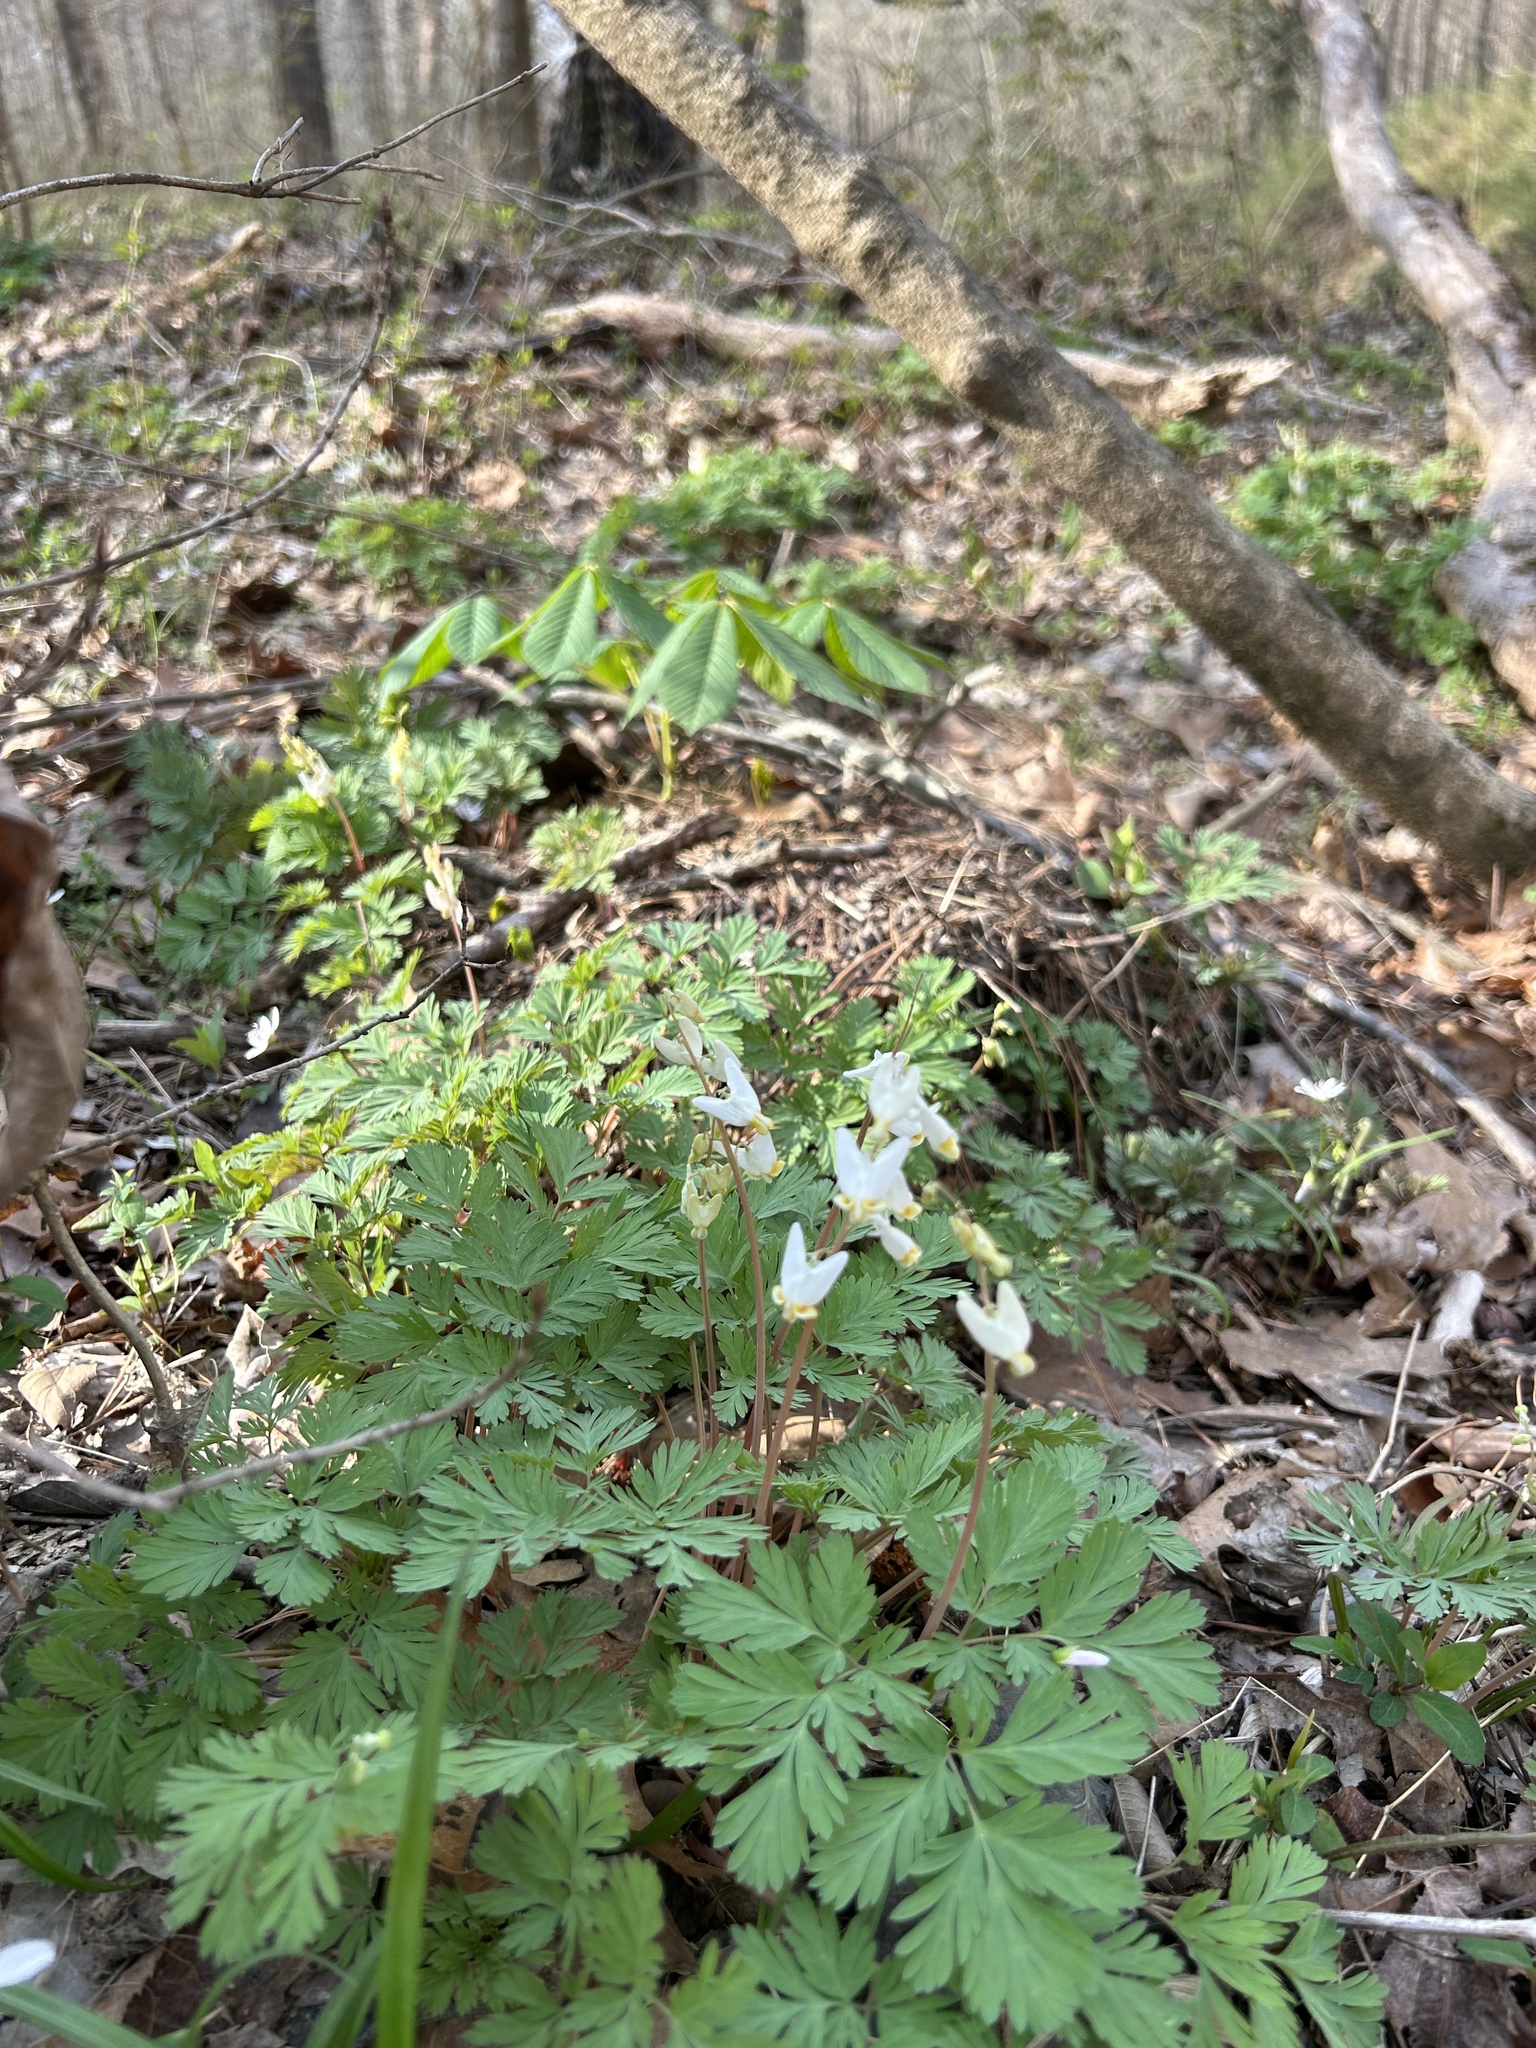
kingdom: Plantae
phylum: Tracheophyta
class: Magnoliopsida
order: Ranunculales
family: Papaveraceae
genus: Dicentra
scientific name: Dicentra cucullaria
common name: Dutchman's breeches
